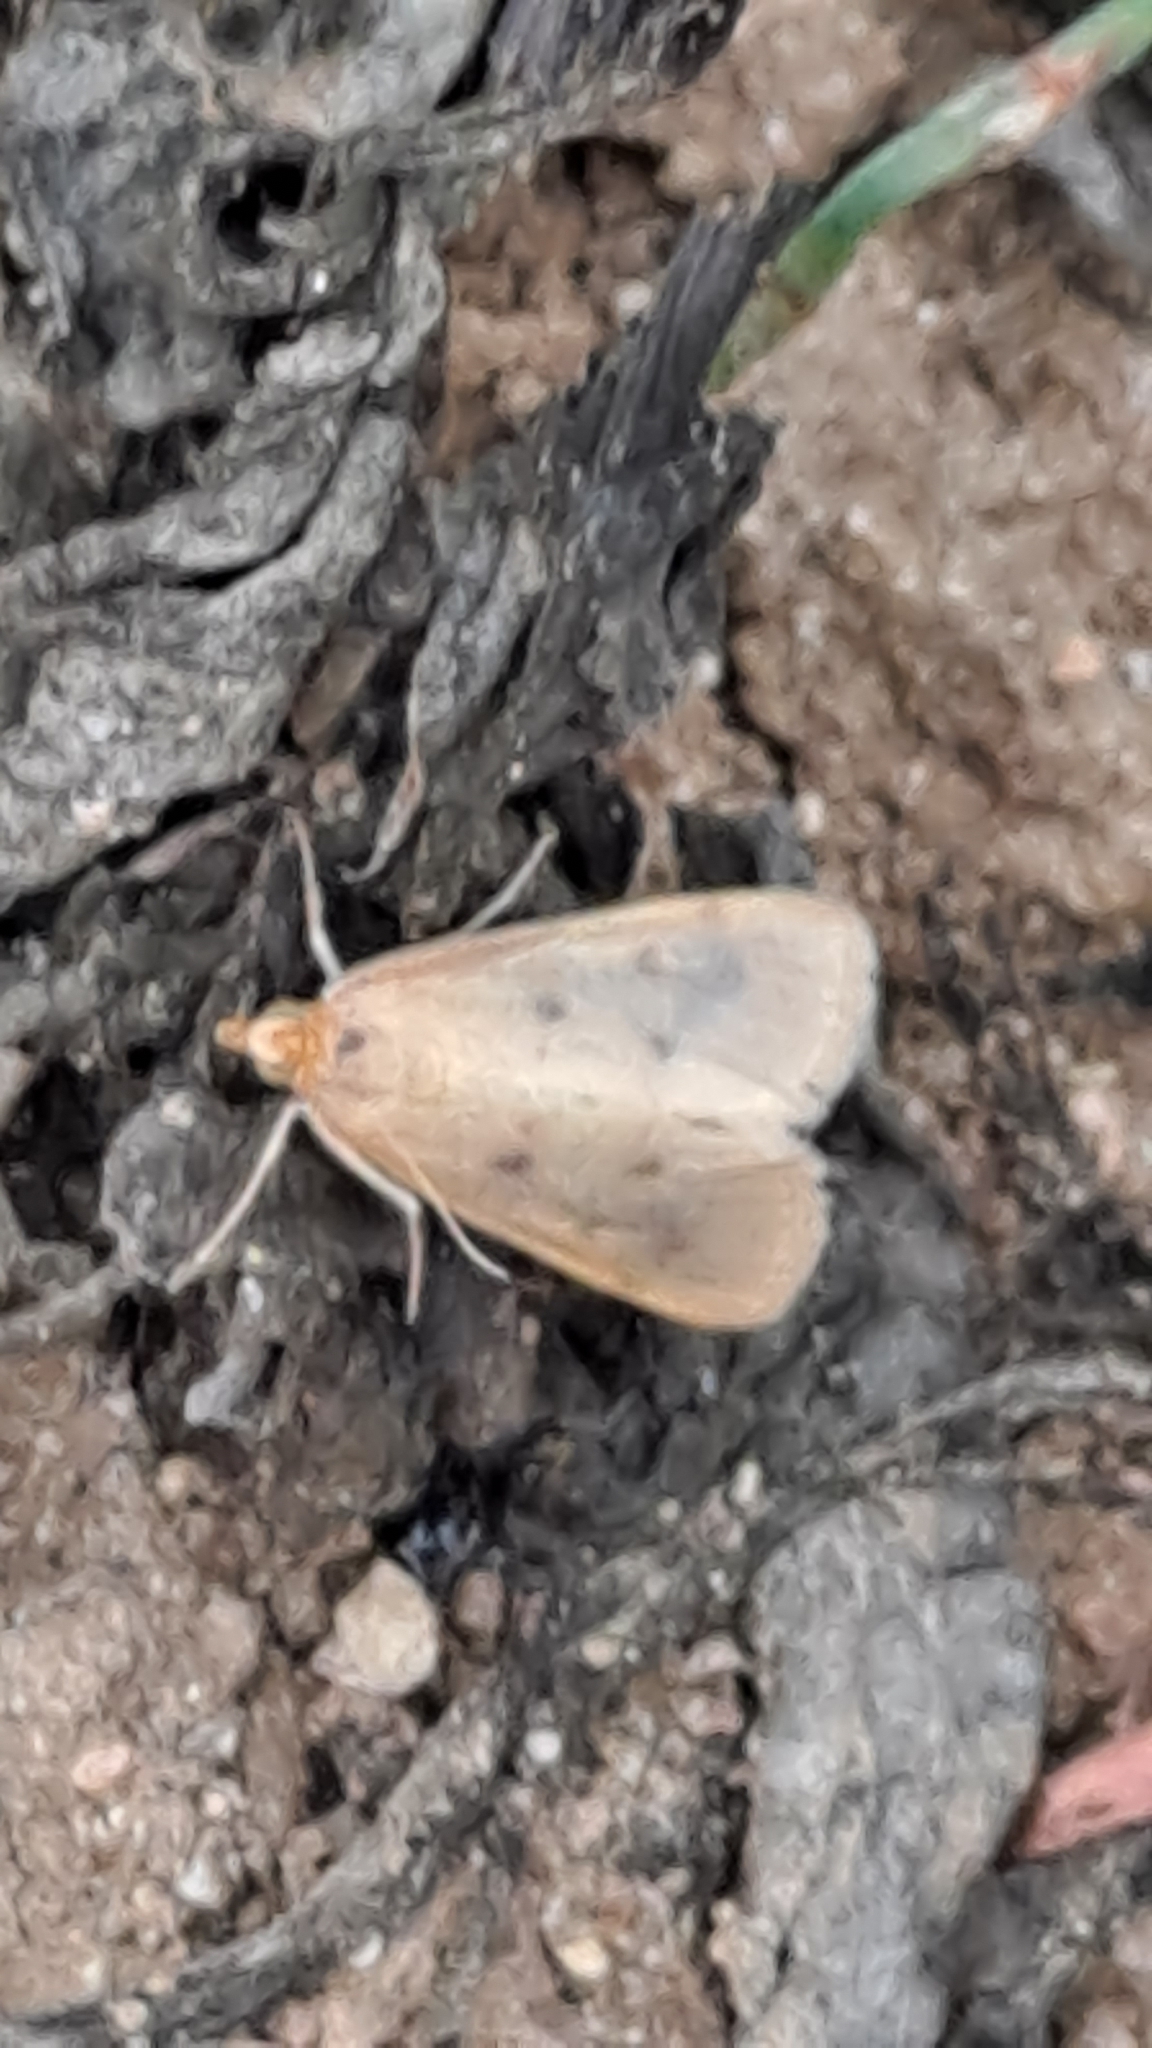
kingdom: Animalia
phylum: Arthropoda
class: Insecta
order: Lepidoptera
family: Crambidae
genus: Achyra
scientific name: Achyra nudalis
